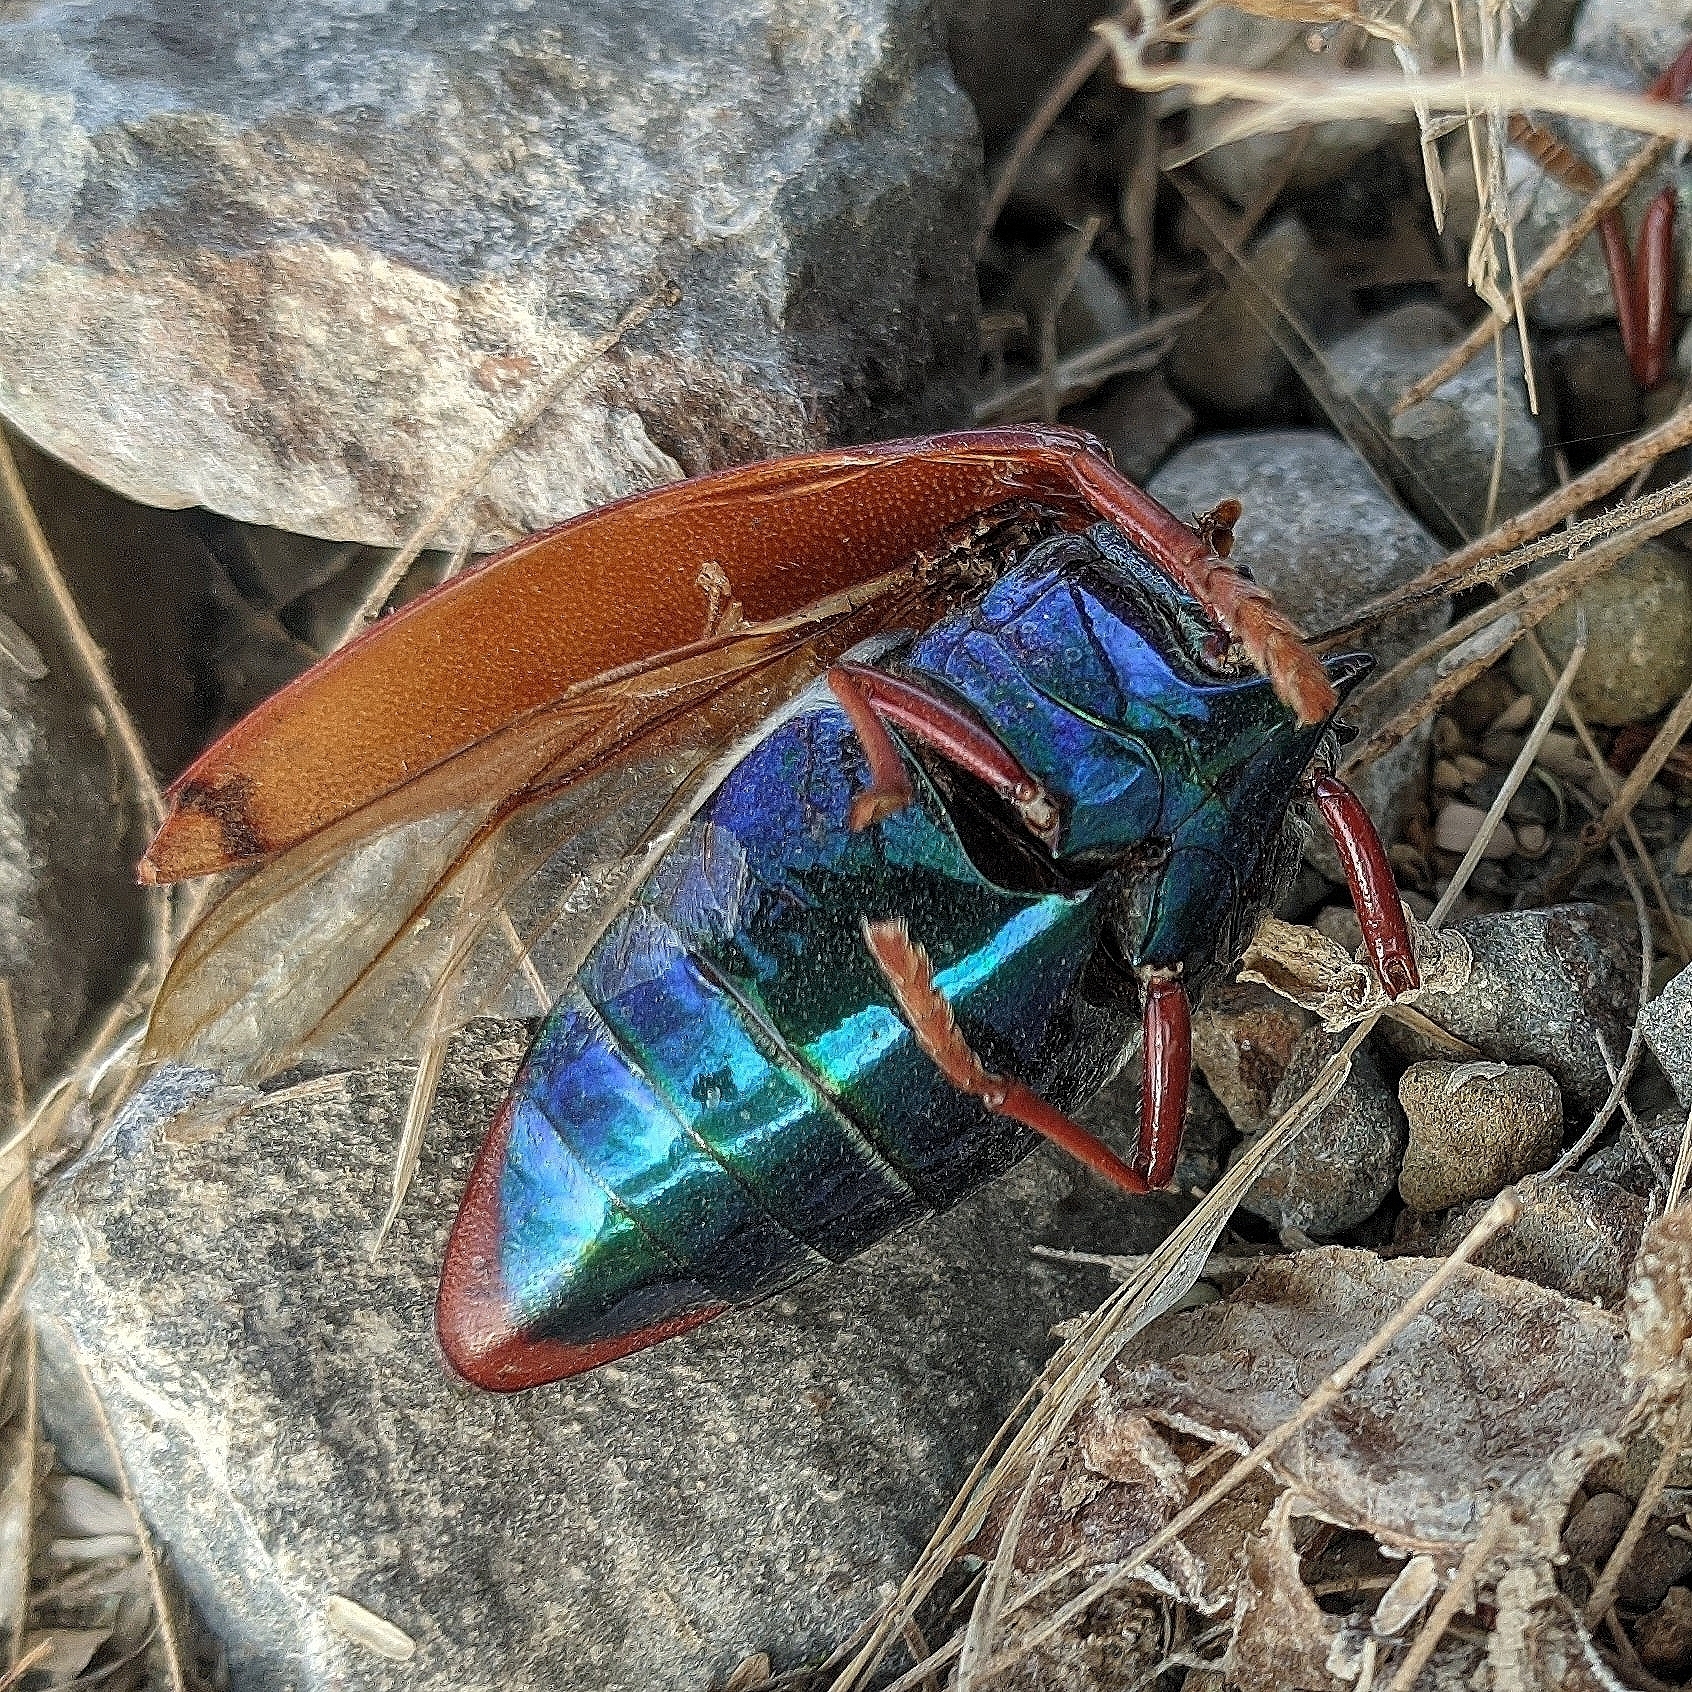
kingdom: Animalia
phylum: Arthropoda
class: Insecta
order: Coleoptera
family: Buprestidae
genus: Sternocera
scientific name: Sternocera chrysis
